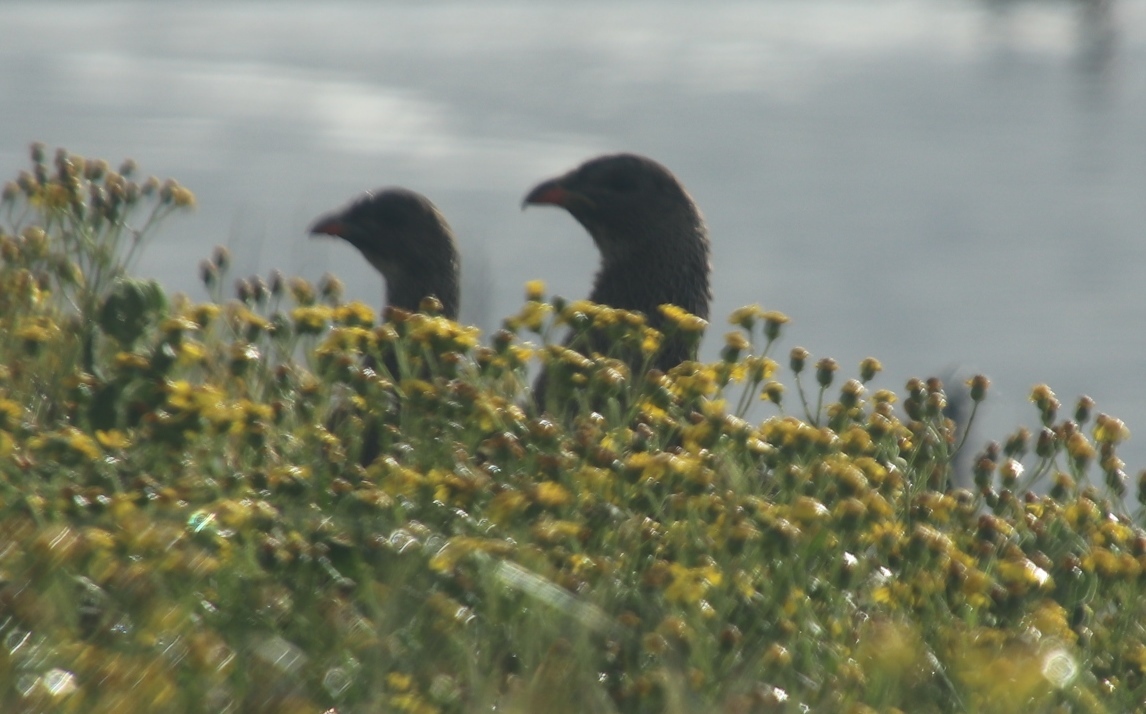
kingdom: Animalia
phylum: Chordata
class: Aves
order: Galliformes
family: Phasianidae
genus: Pternistis
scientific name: Pternistis capensis
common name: Cape spurfowl
